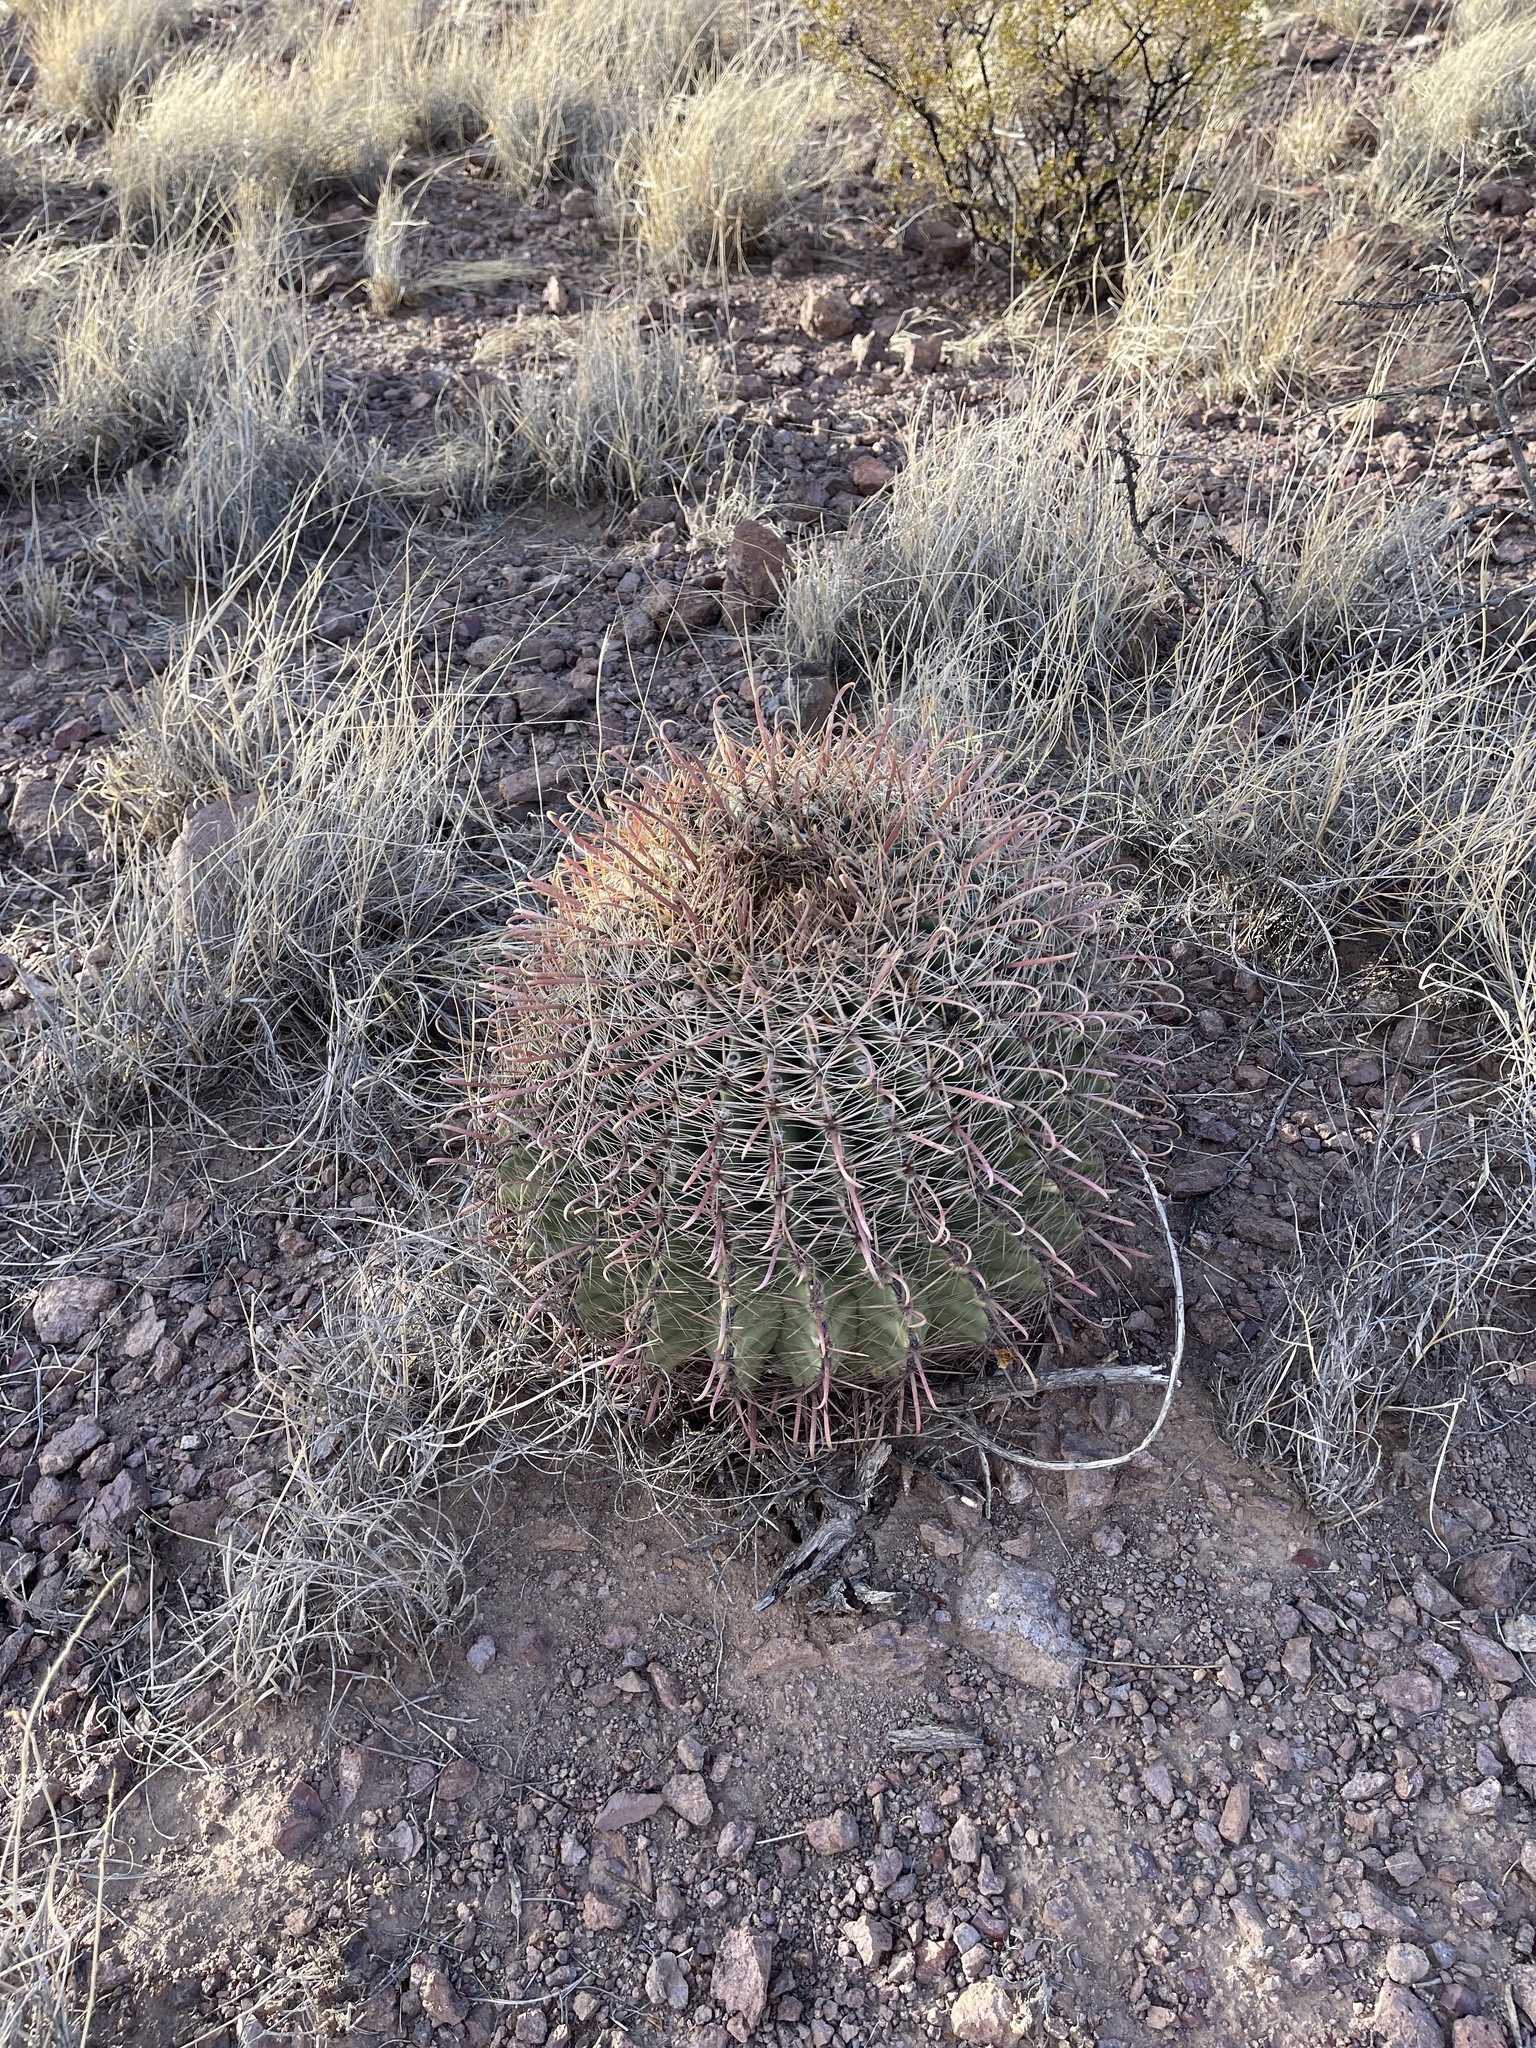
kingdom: Plantae
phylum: Tracheophyta
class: Magnoliopsida
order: Caryophyllales
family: Cactaceae
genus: Ferocactus
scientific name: Ferocactus wislizeni
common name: Candy barrel cactus
